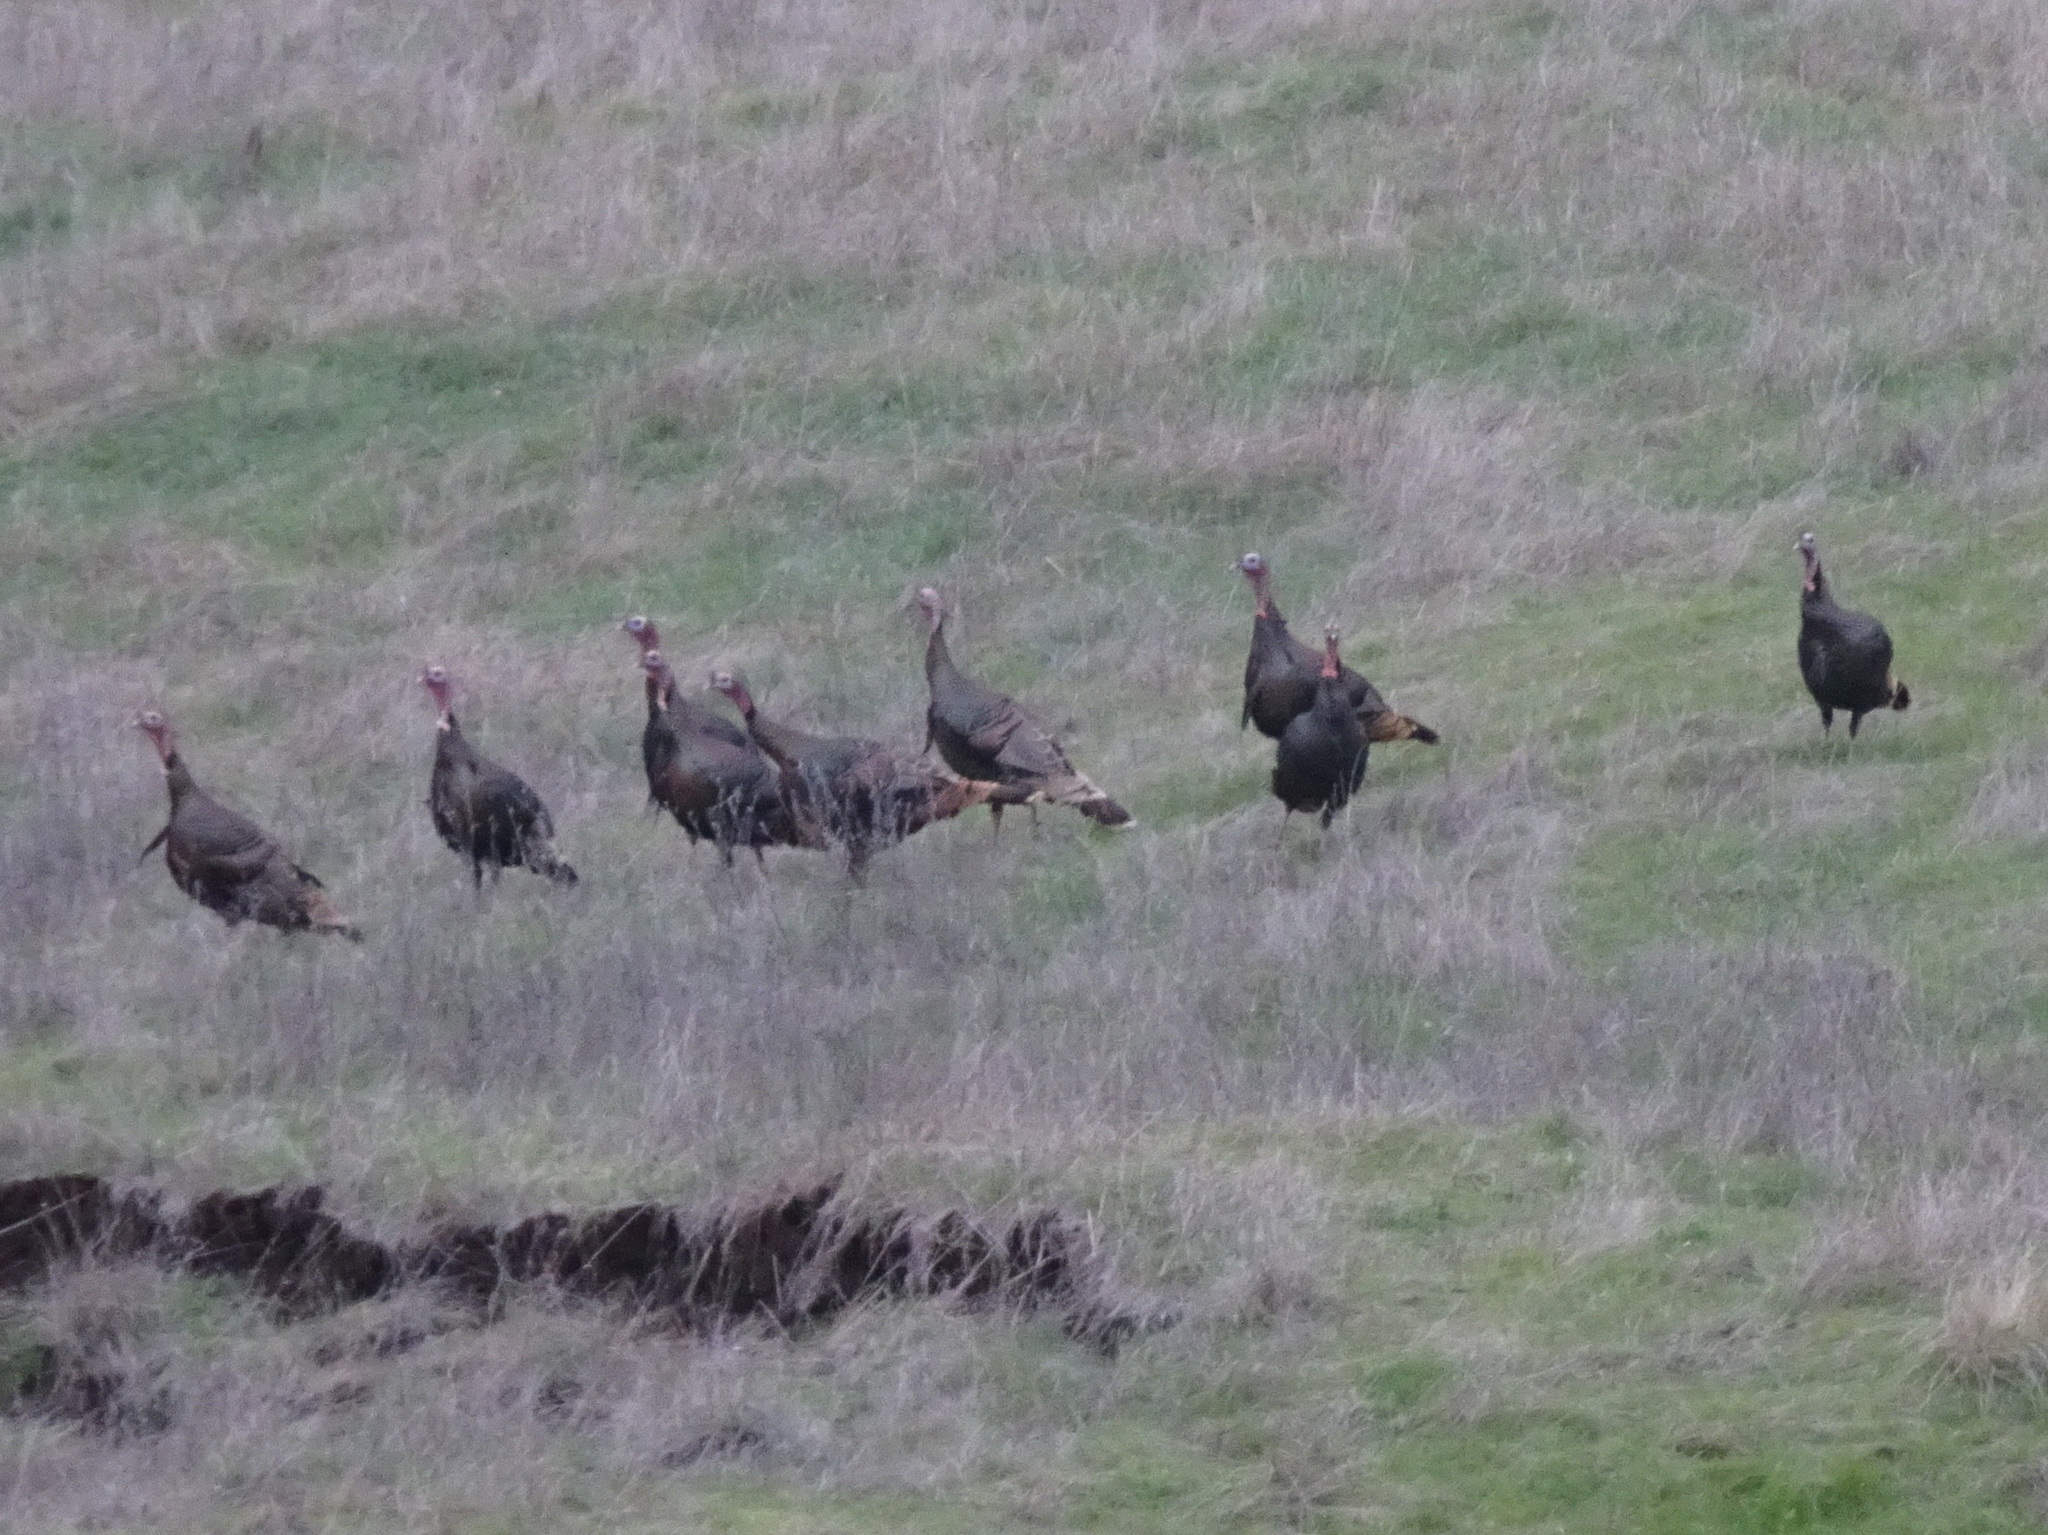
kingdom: Animalia
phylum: Chordata
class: Aves
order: Galliformes
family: Phasianidae
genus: Meleagris
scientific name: Meleagris gallopavo
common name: Wild turkey
